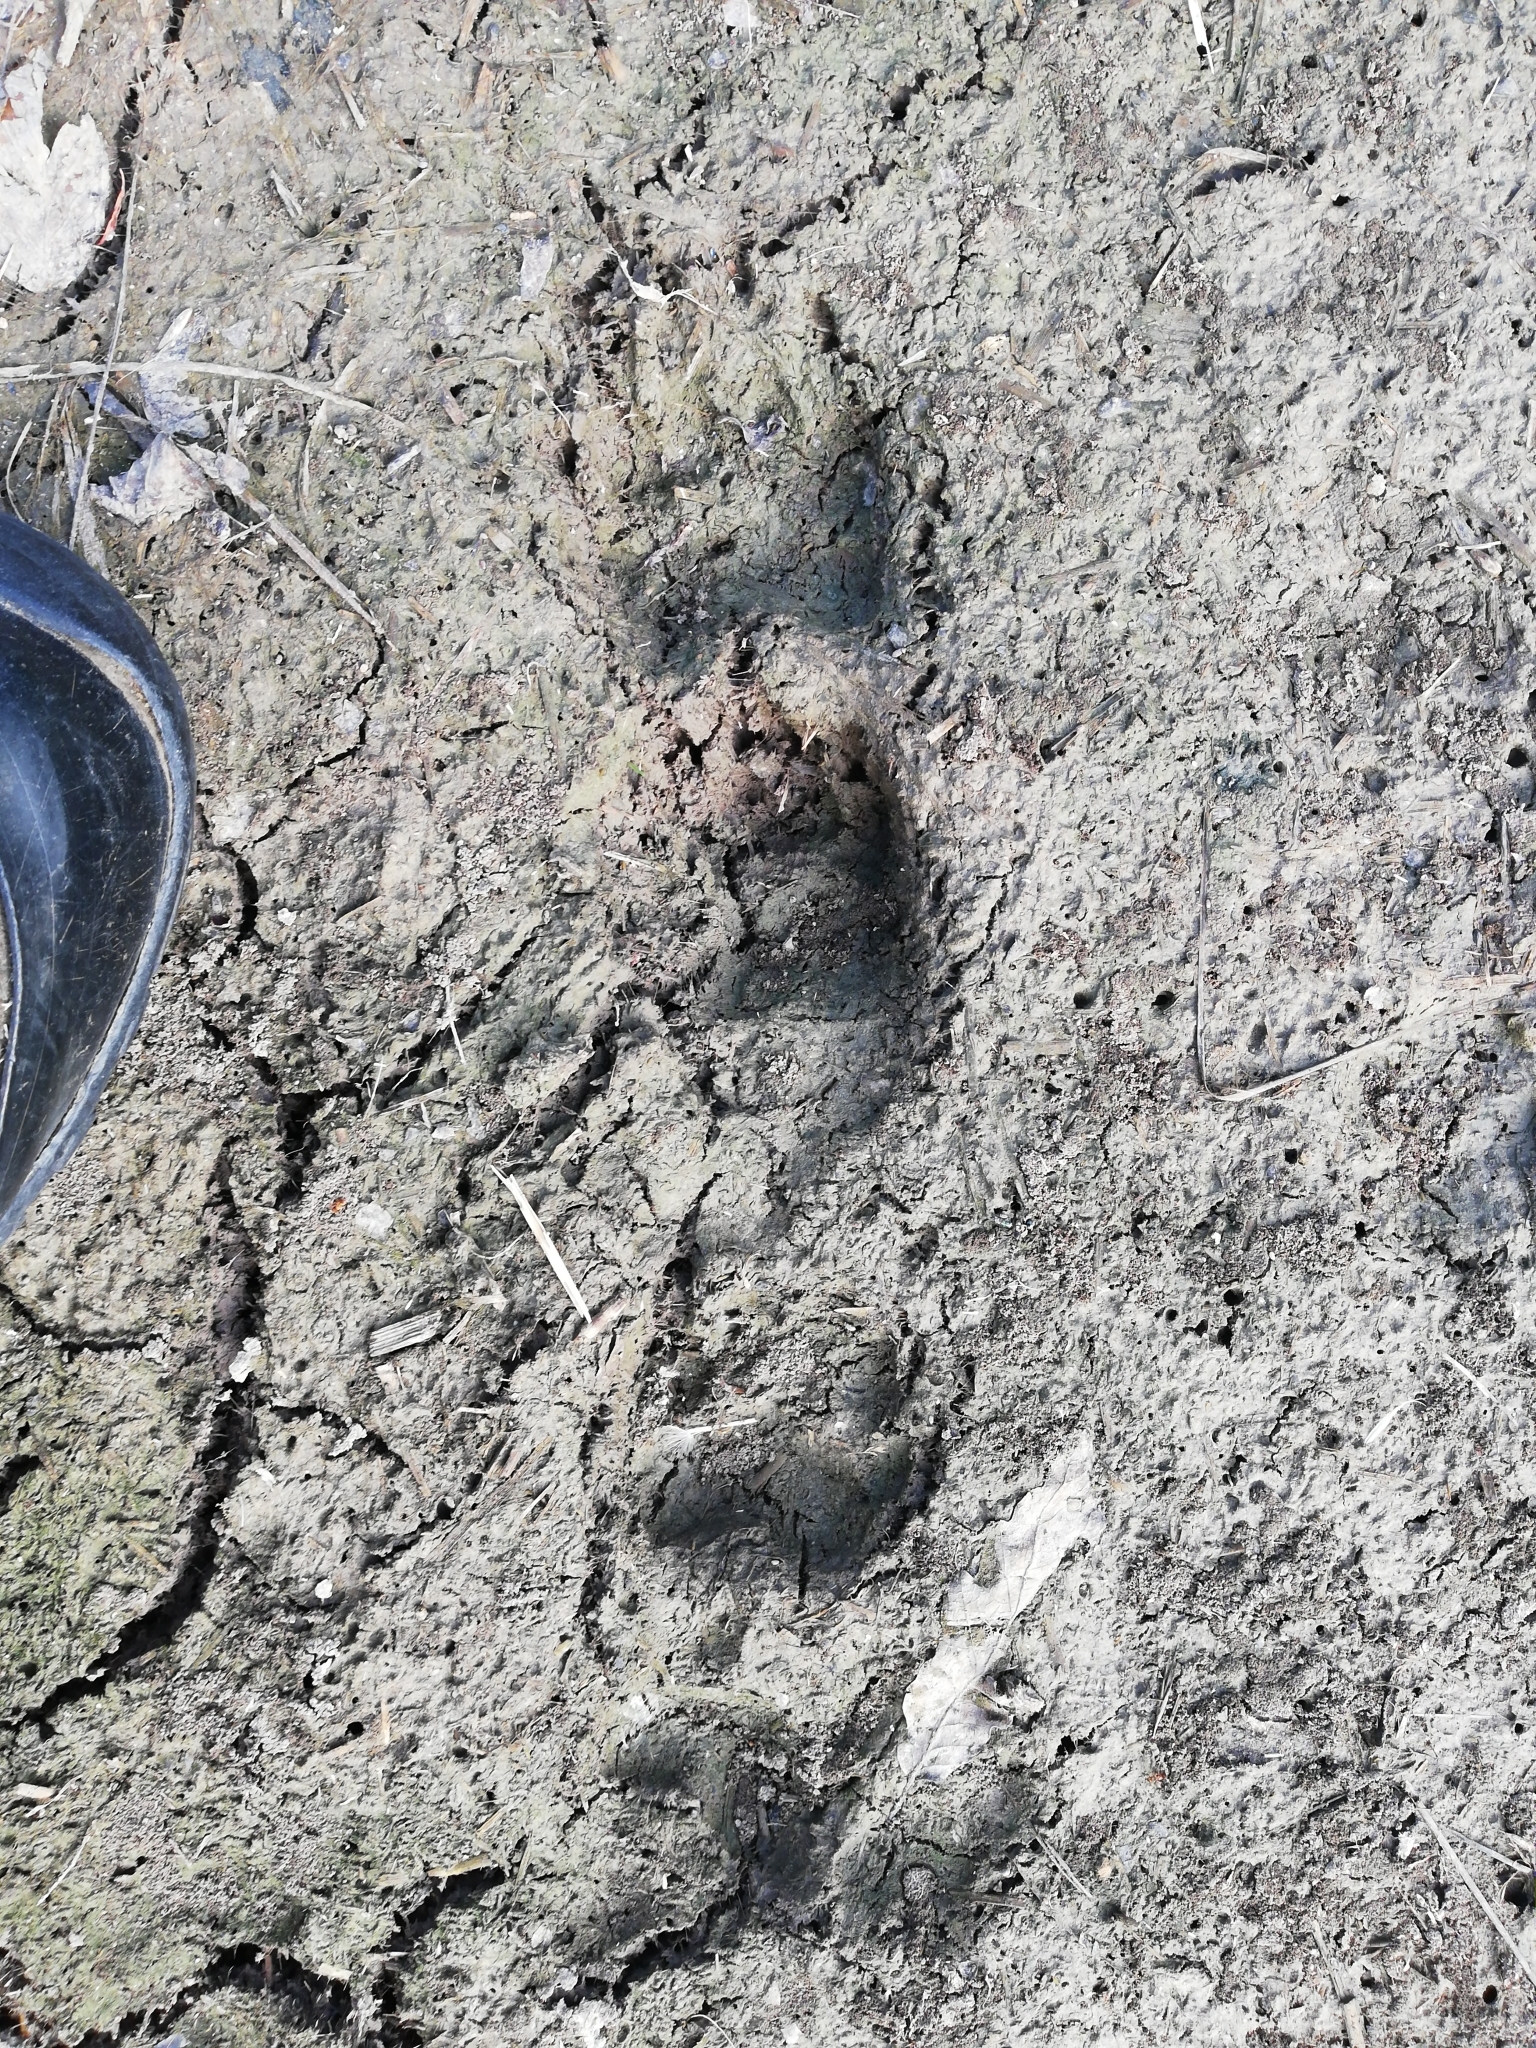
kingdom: Animalia
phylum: Chordata
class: Mammalia
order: Carnivora
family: Mustelidae
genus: Meles
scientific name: Meles meles
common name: Eurasian badger
